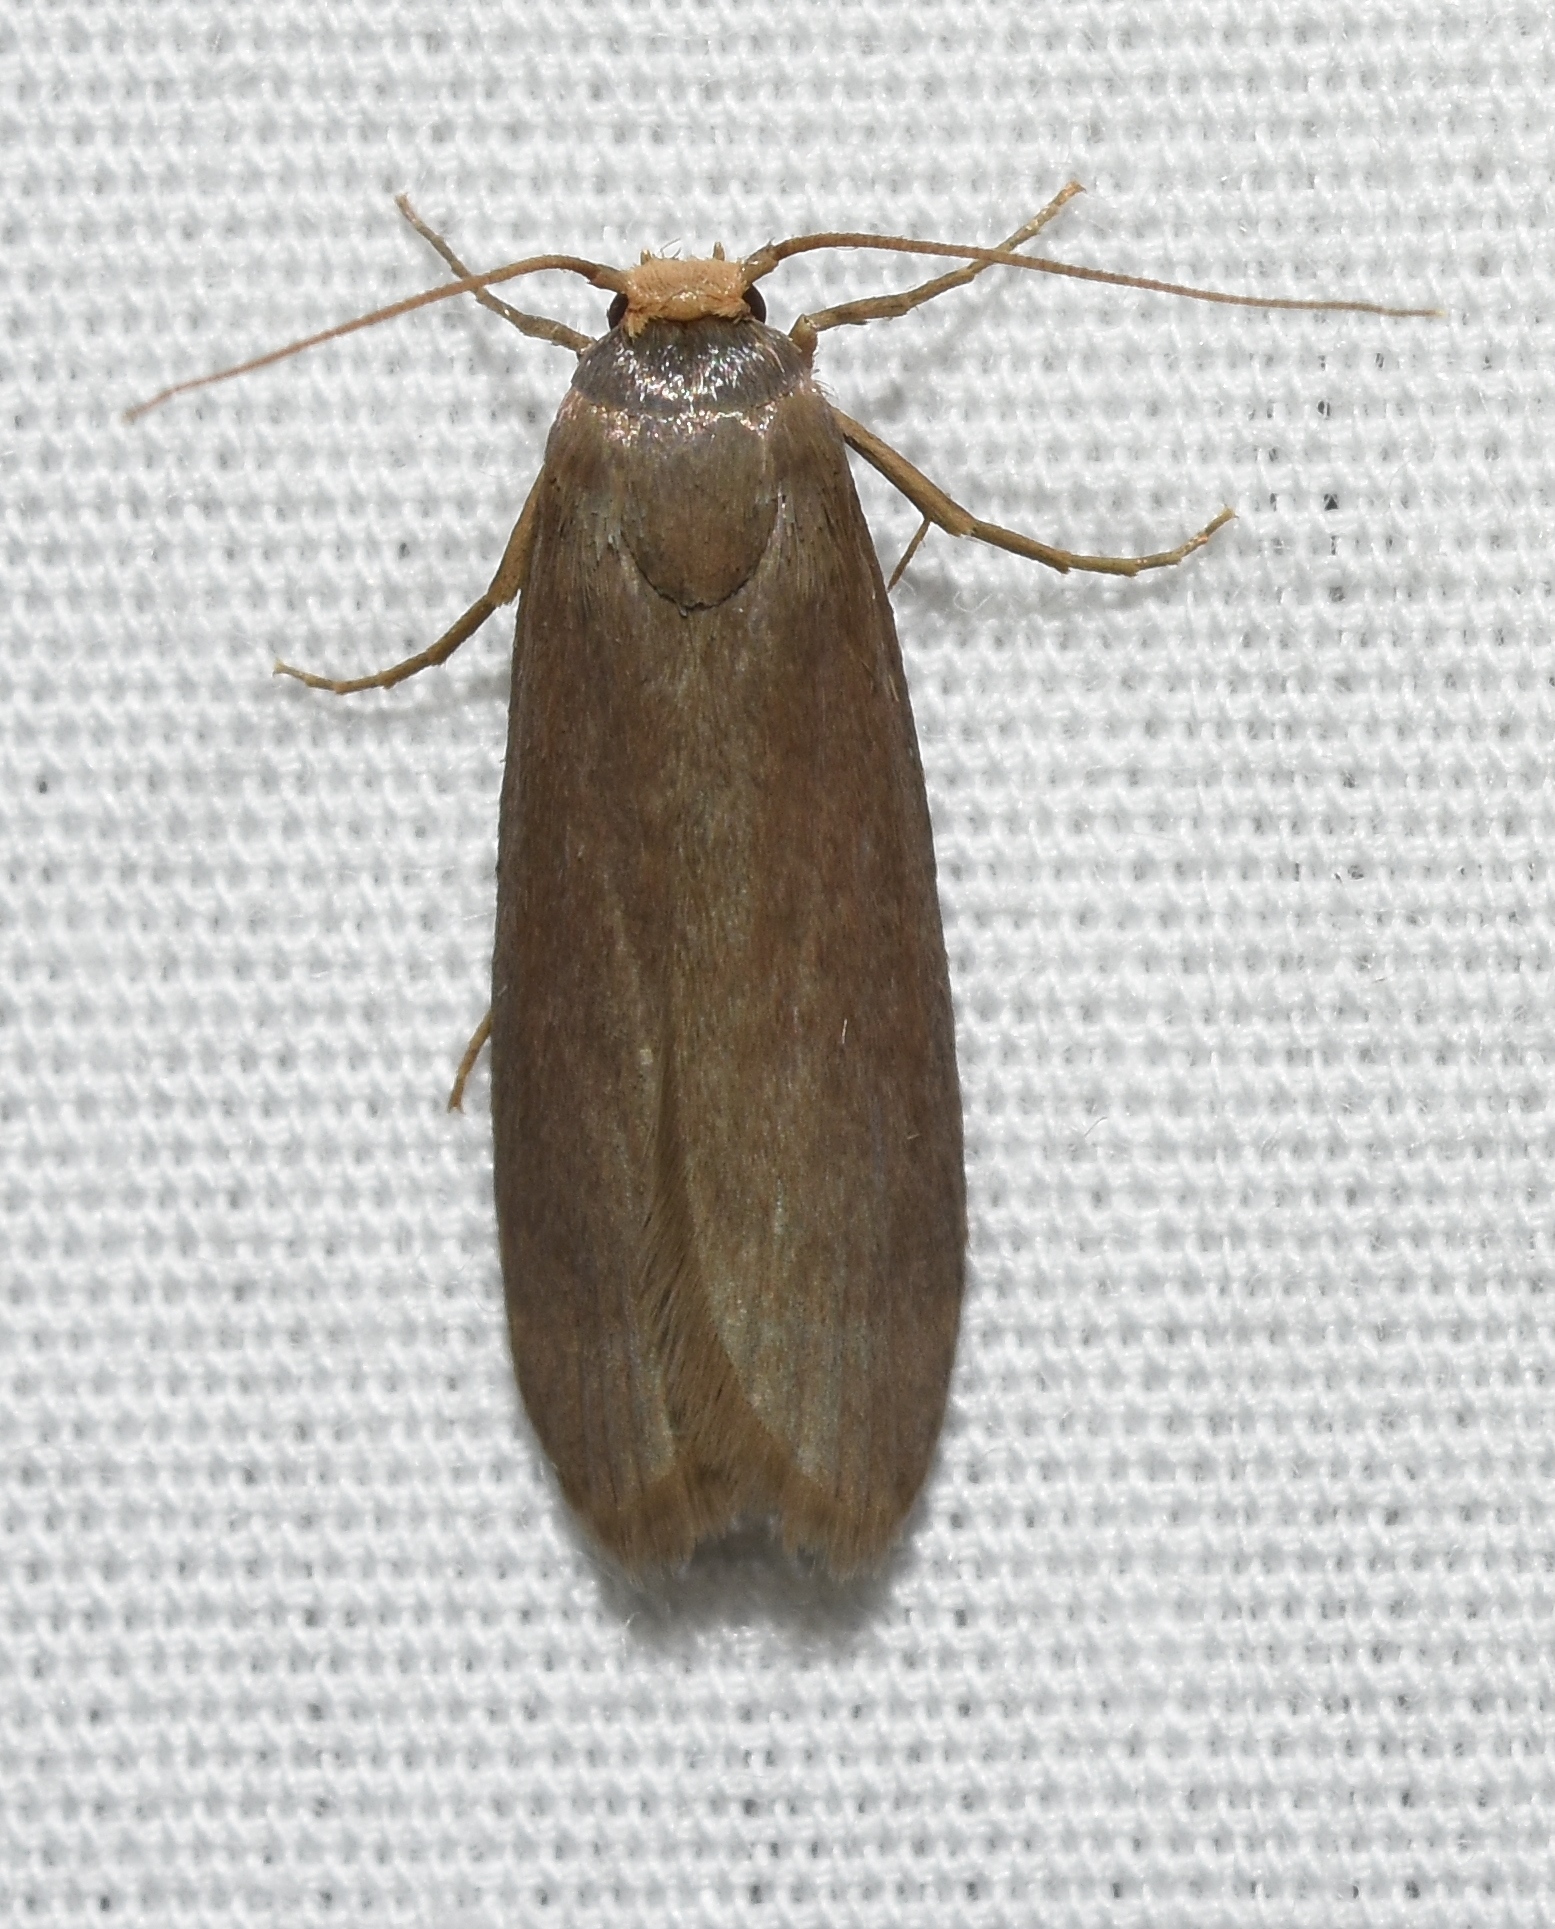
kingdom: Animalia
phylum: Arthropoda
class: Insecta
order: Lepidoptera
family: Pyralidae
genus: Achroia
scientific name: Achroia grisella
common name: Lesser wax moth
